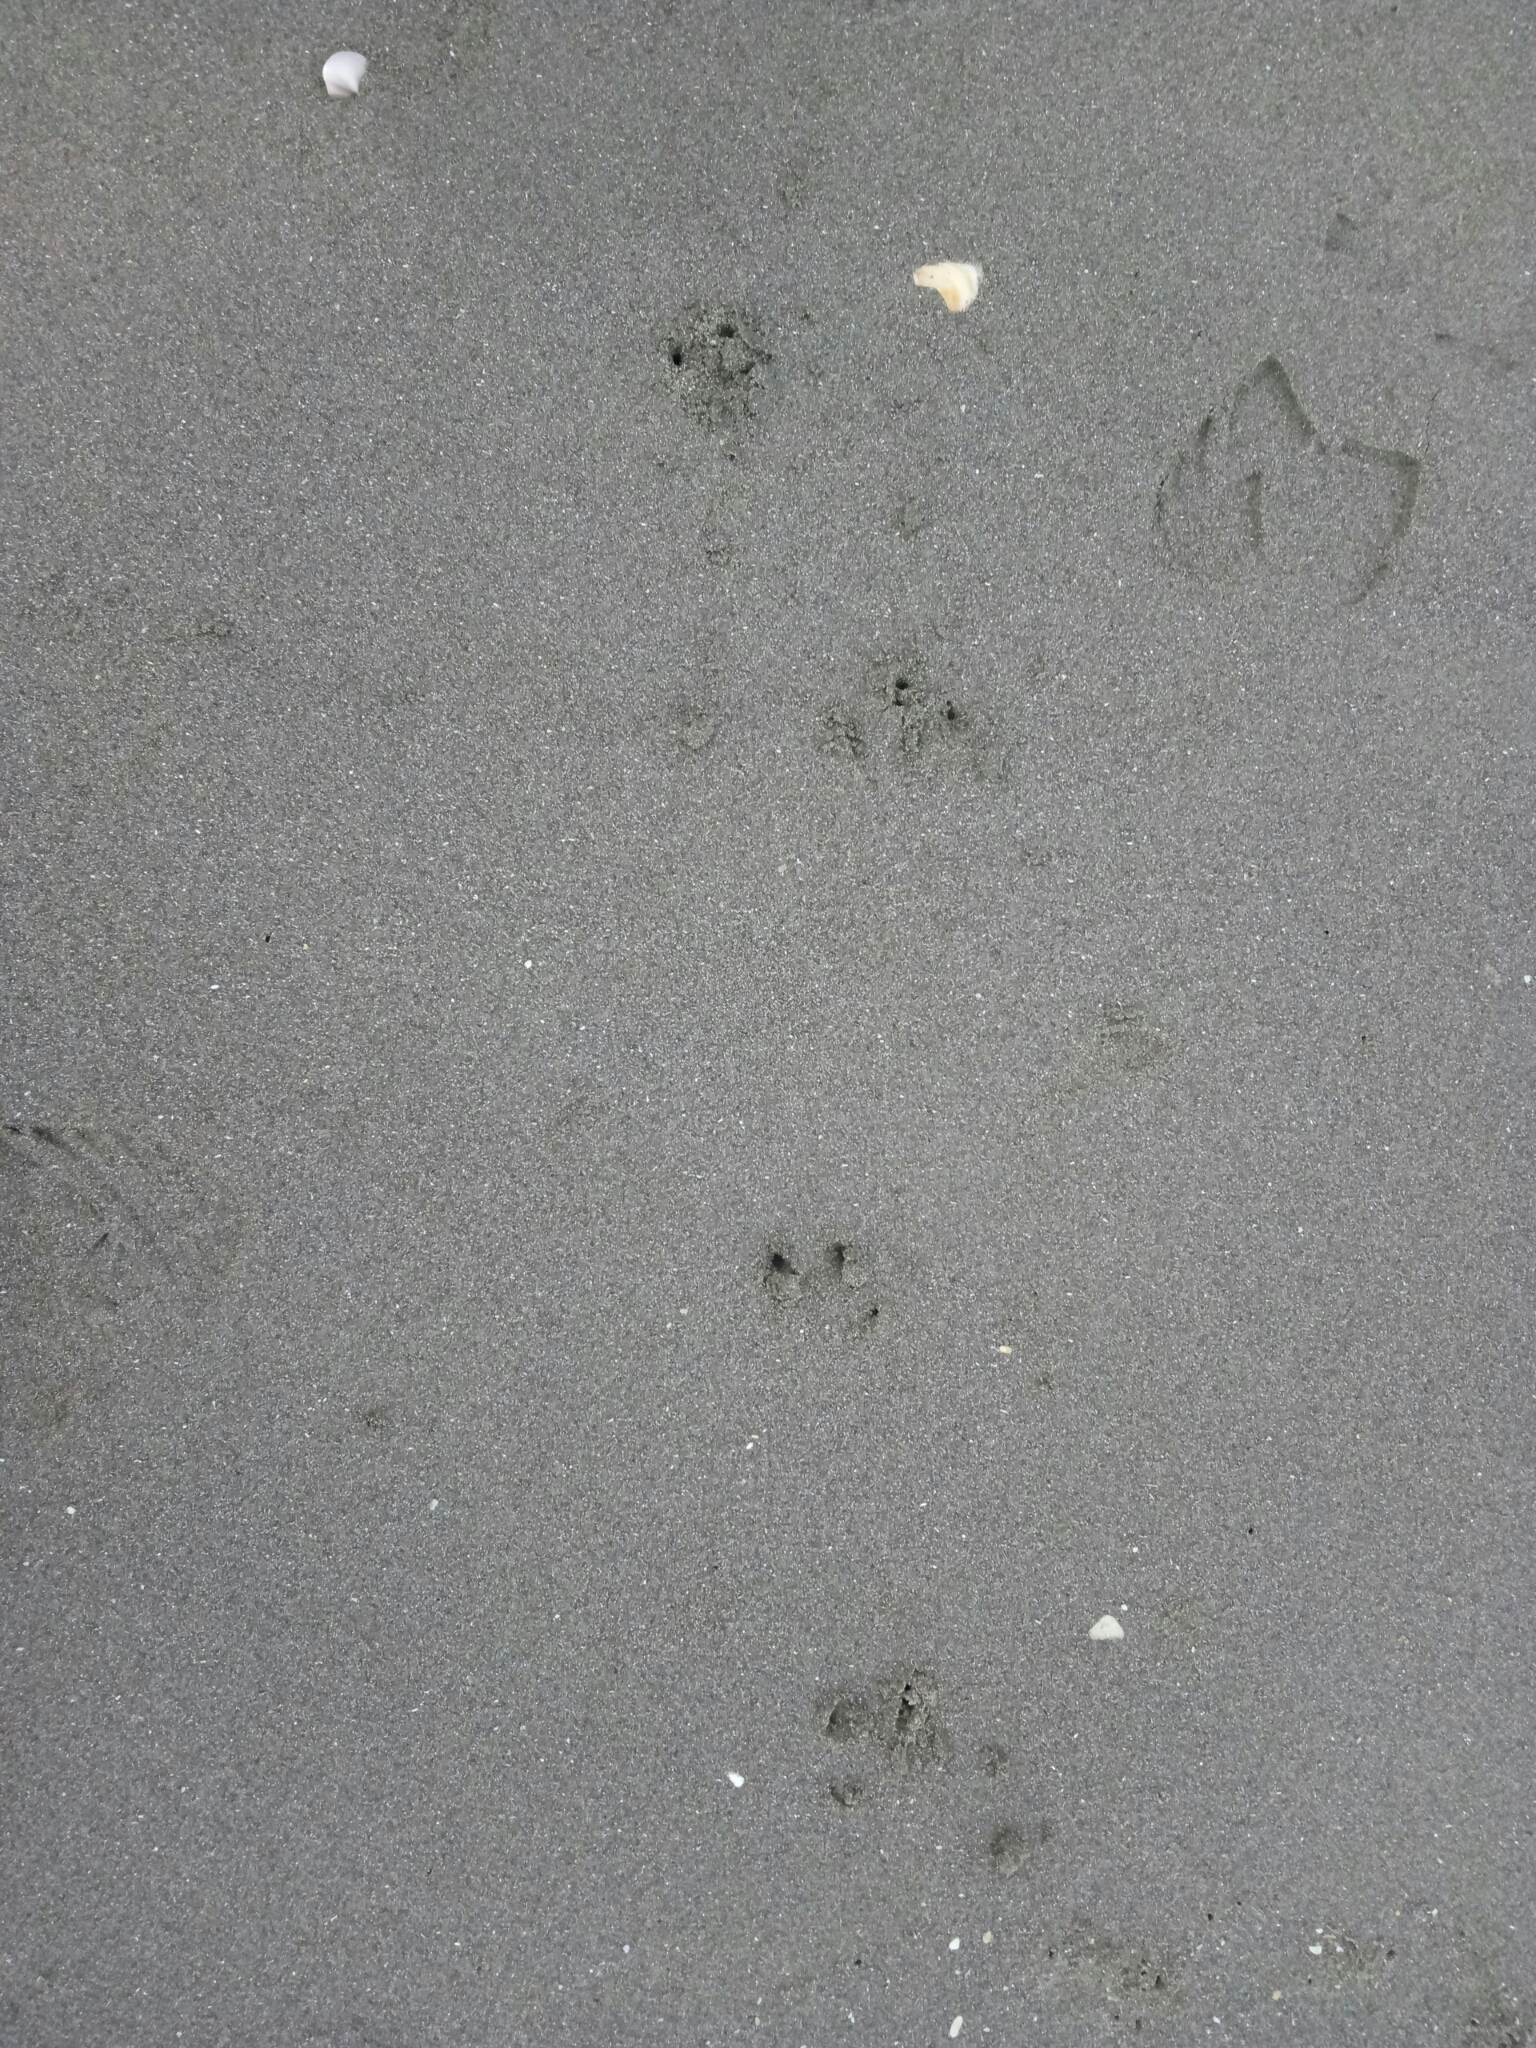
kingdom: Animalia
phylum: Chordata
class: Aves
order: Sphenisciformes
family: Spheniscidae
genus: Eudyptula
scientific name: Eudyptula minor
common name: Little penguin
